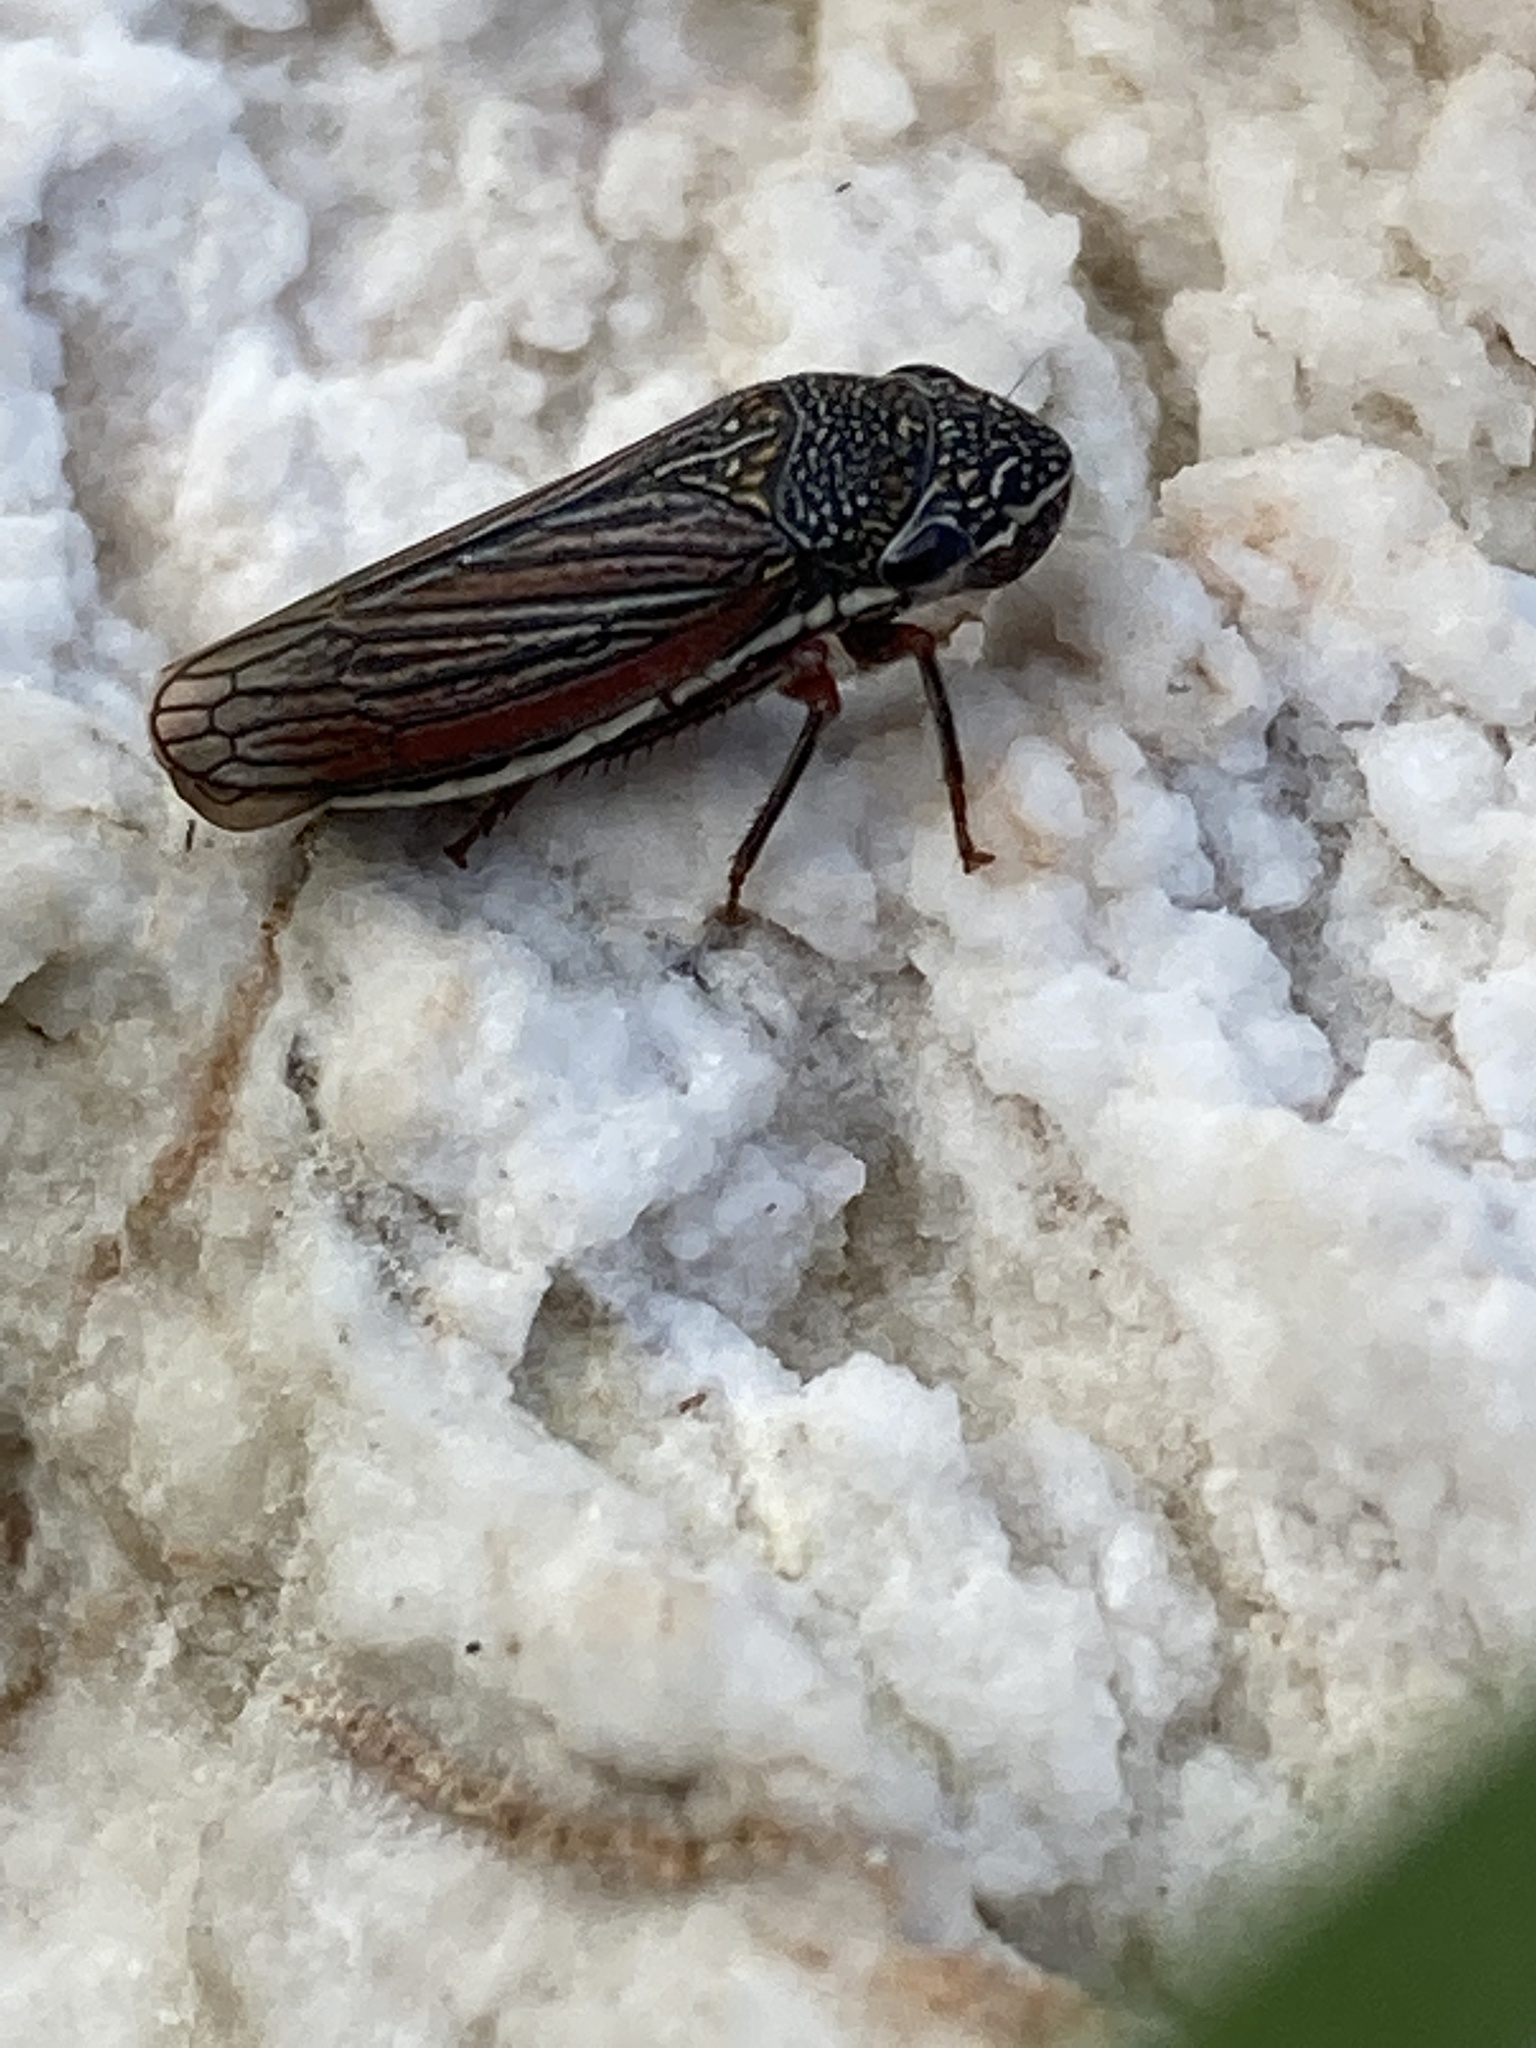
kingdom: Animalia
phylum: Arthropoda
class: Insecta
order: Hemiptera
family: Cicadellidae
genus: Cuerna
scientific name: Cuerna costalis
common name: Lateral-lined sharpshooter
